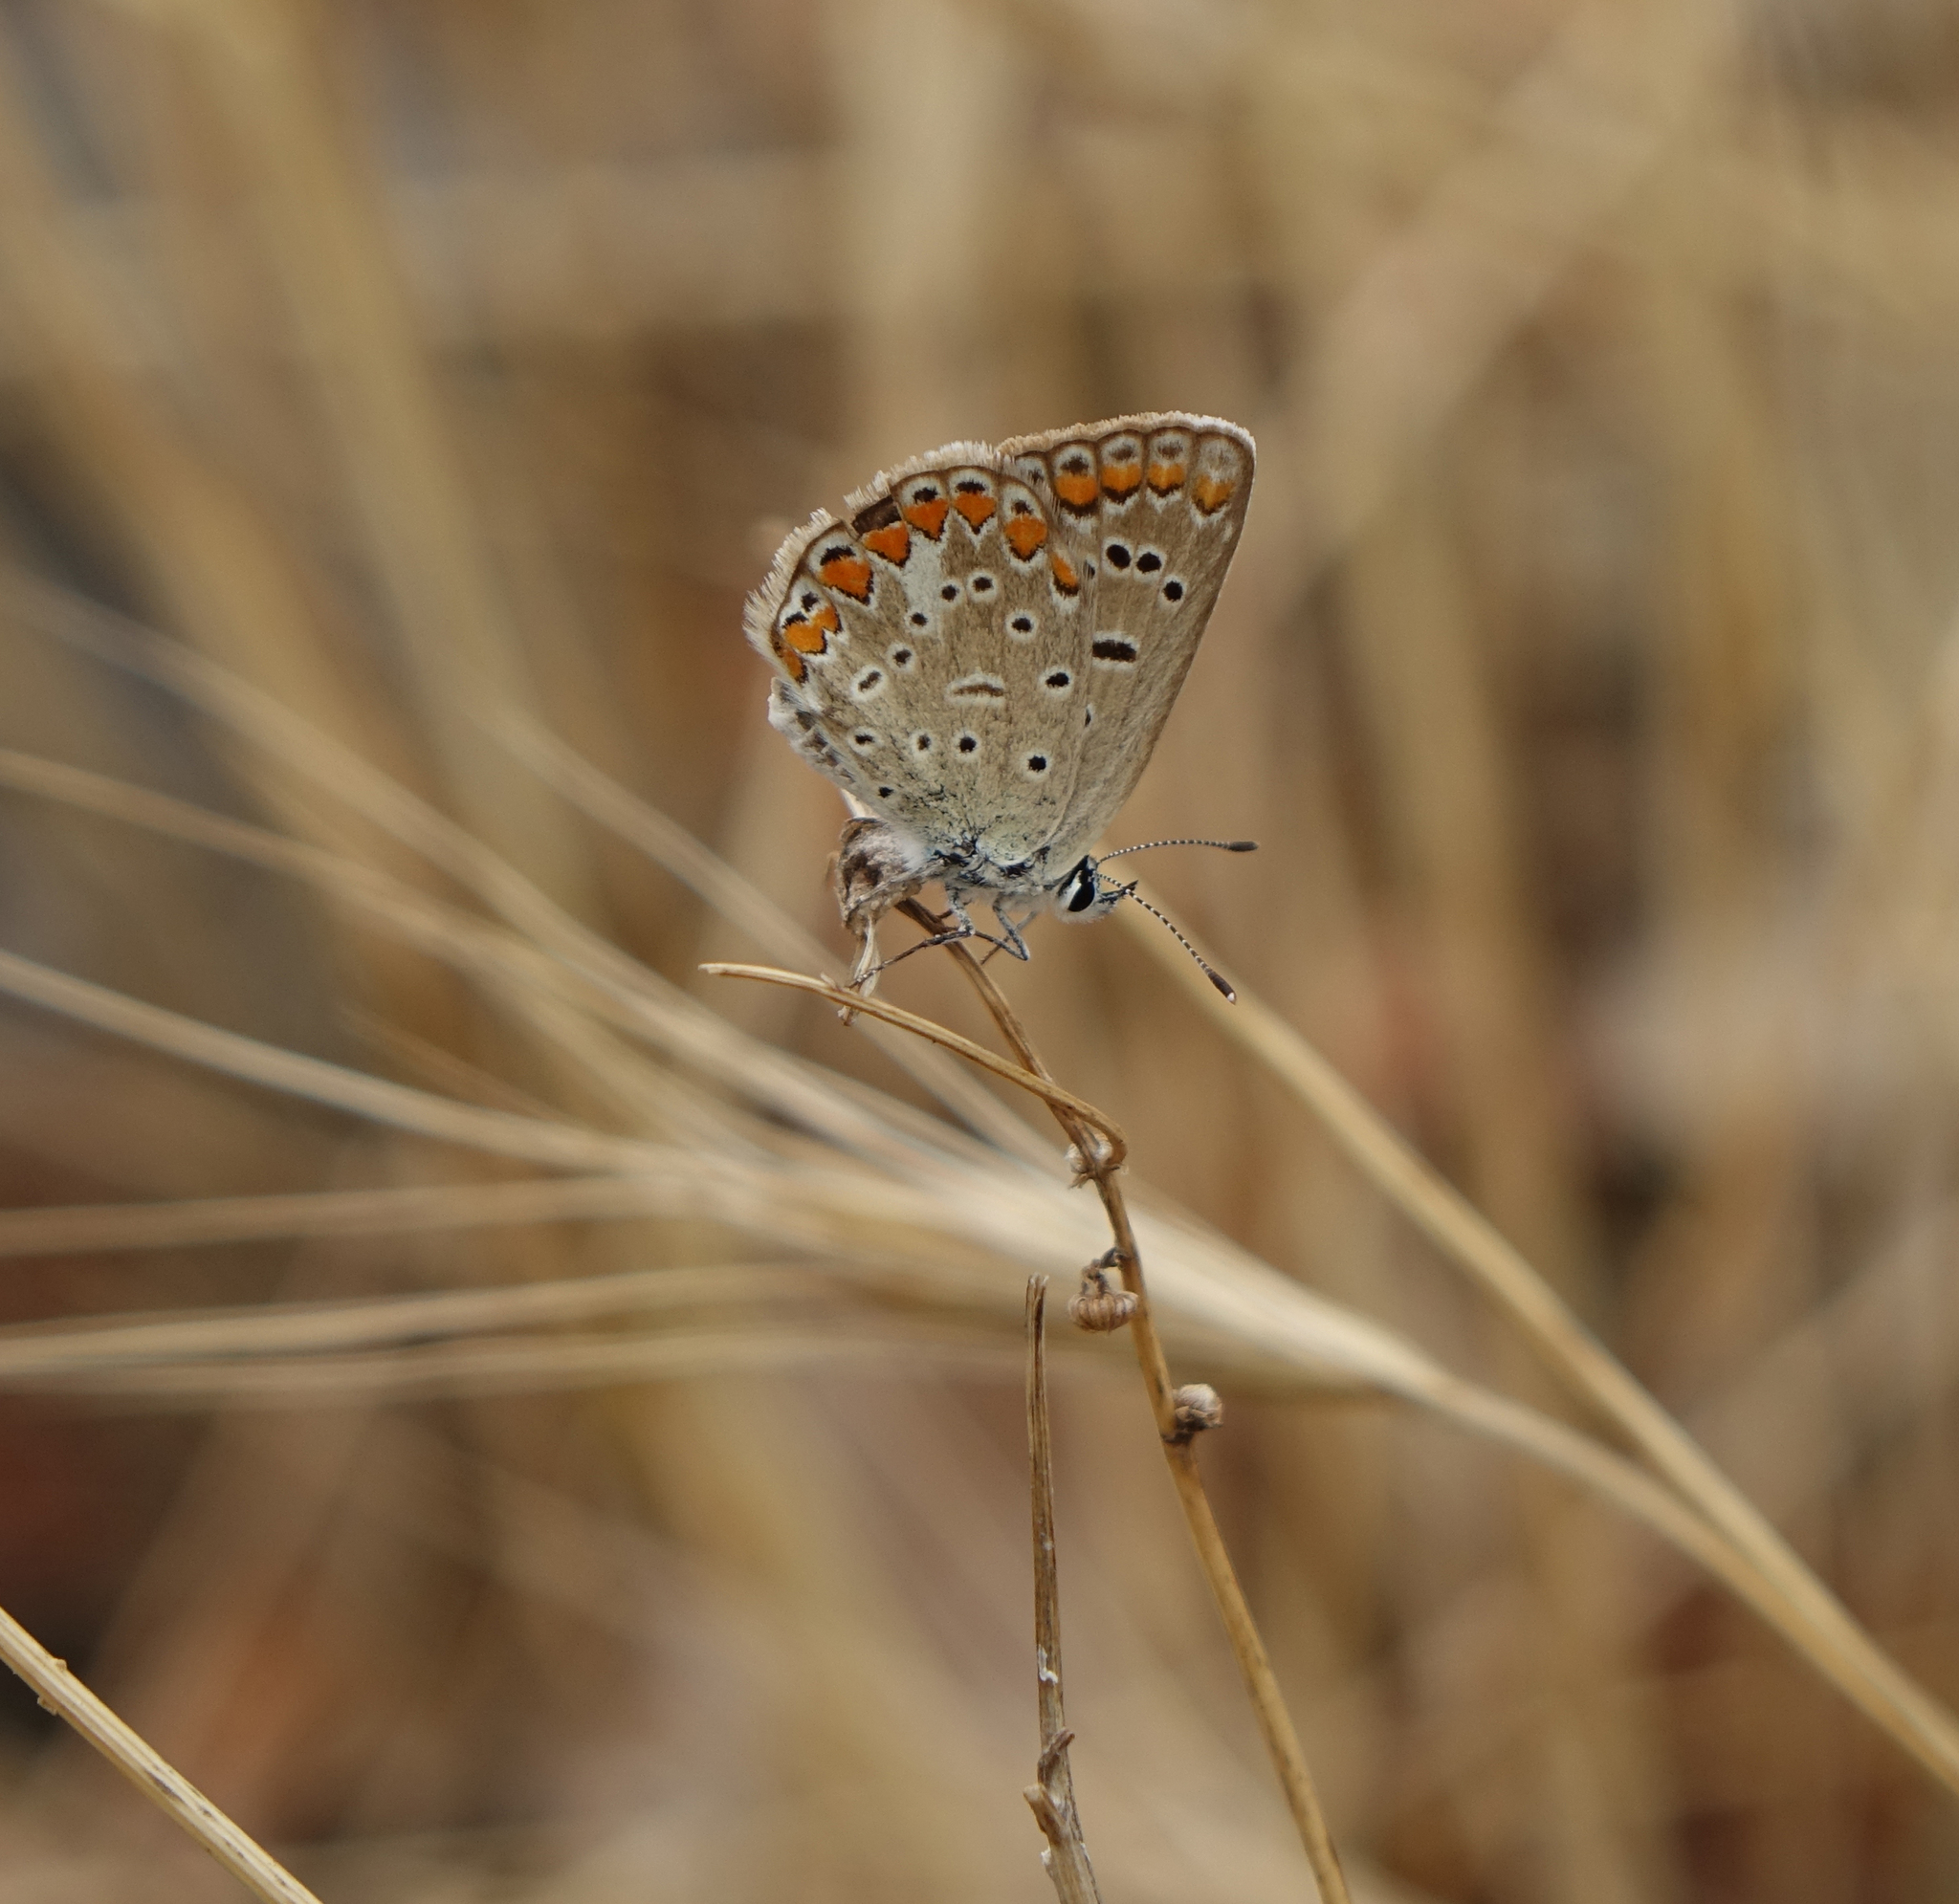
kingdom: Animalia
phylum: Arthropoda
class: Insecta
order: Lepidoptera
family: Lycaenidae
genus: Polyommatus
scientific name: Polyommatus icarus
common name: Common blue
